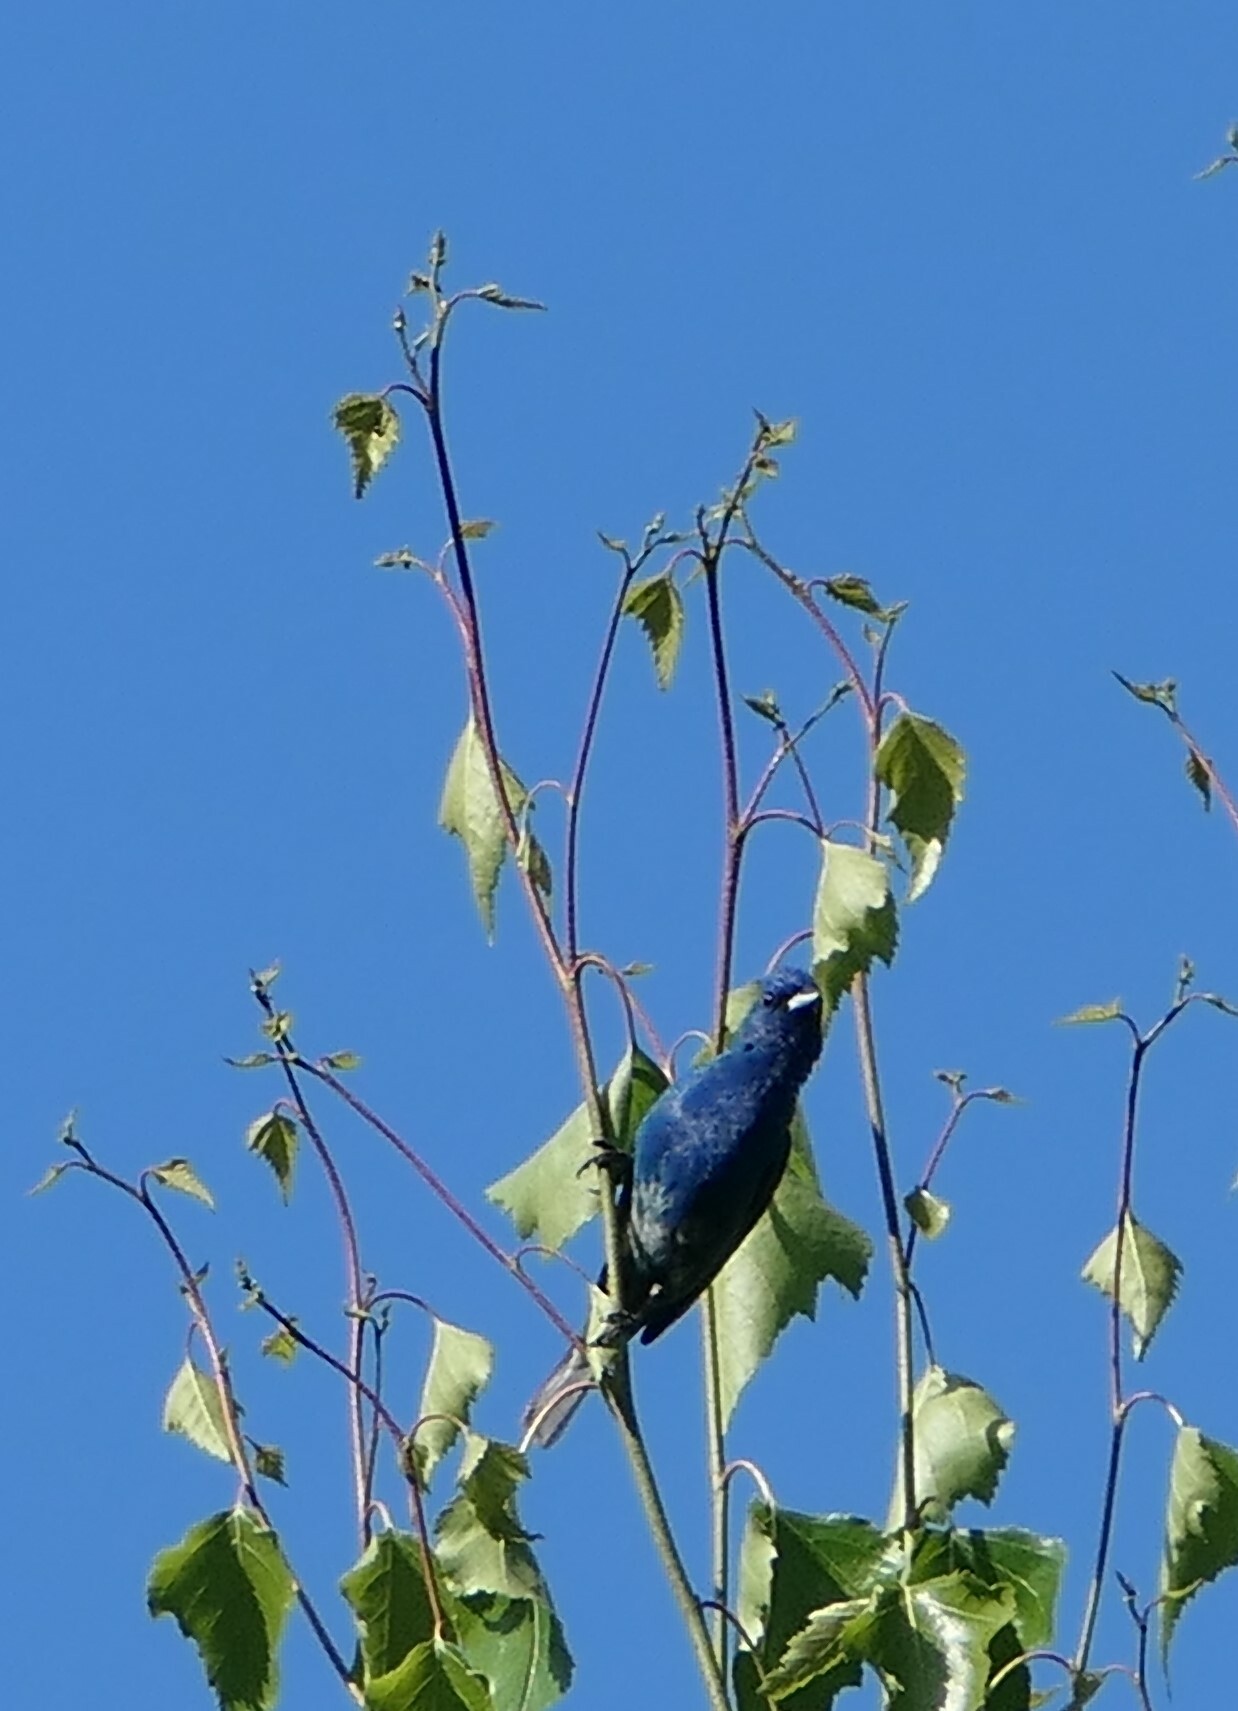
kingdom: Animalia
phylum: Chordata
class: Aves
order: Passeriformes
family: Cardinalidae
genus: Passerina
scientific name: Passerina cyanea
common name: Indigo bunting
